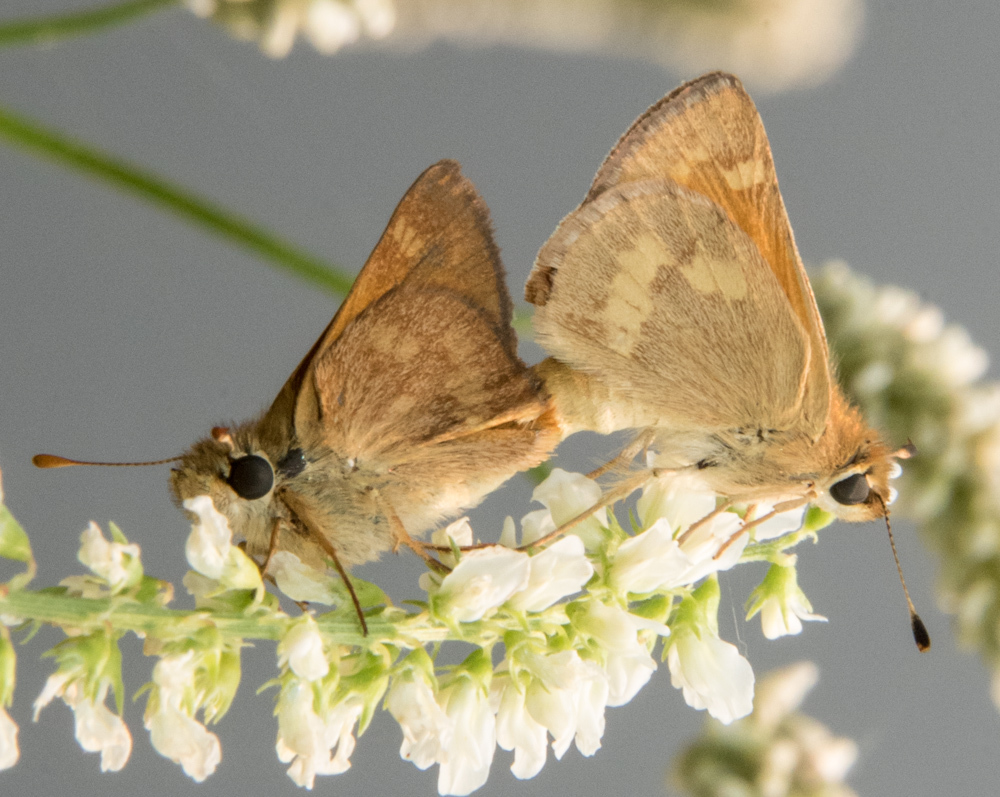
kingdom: Animalia
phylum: Arthropoda
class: Insecta
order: Lepidoptera
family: Hesperiidae
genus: Ochlodes
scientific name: Ochlodes sylvanoides
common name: Woodland skipper
